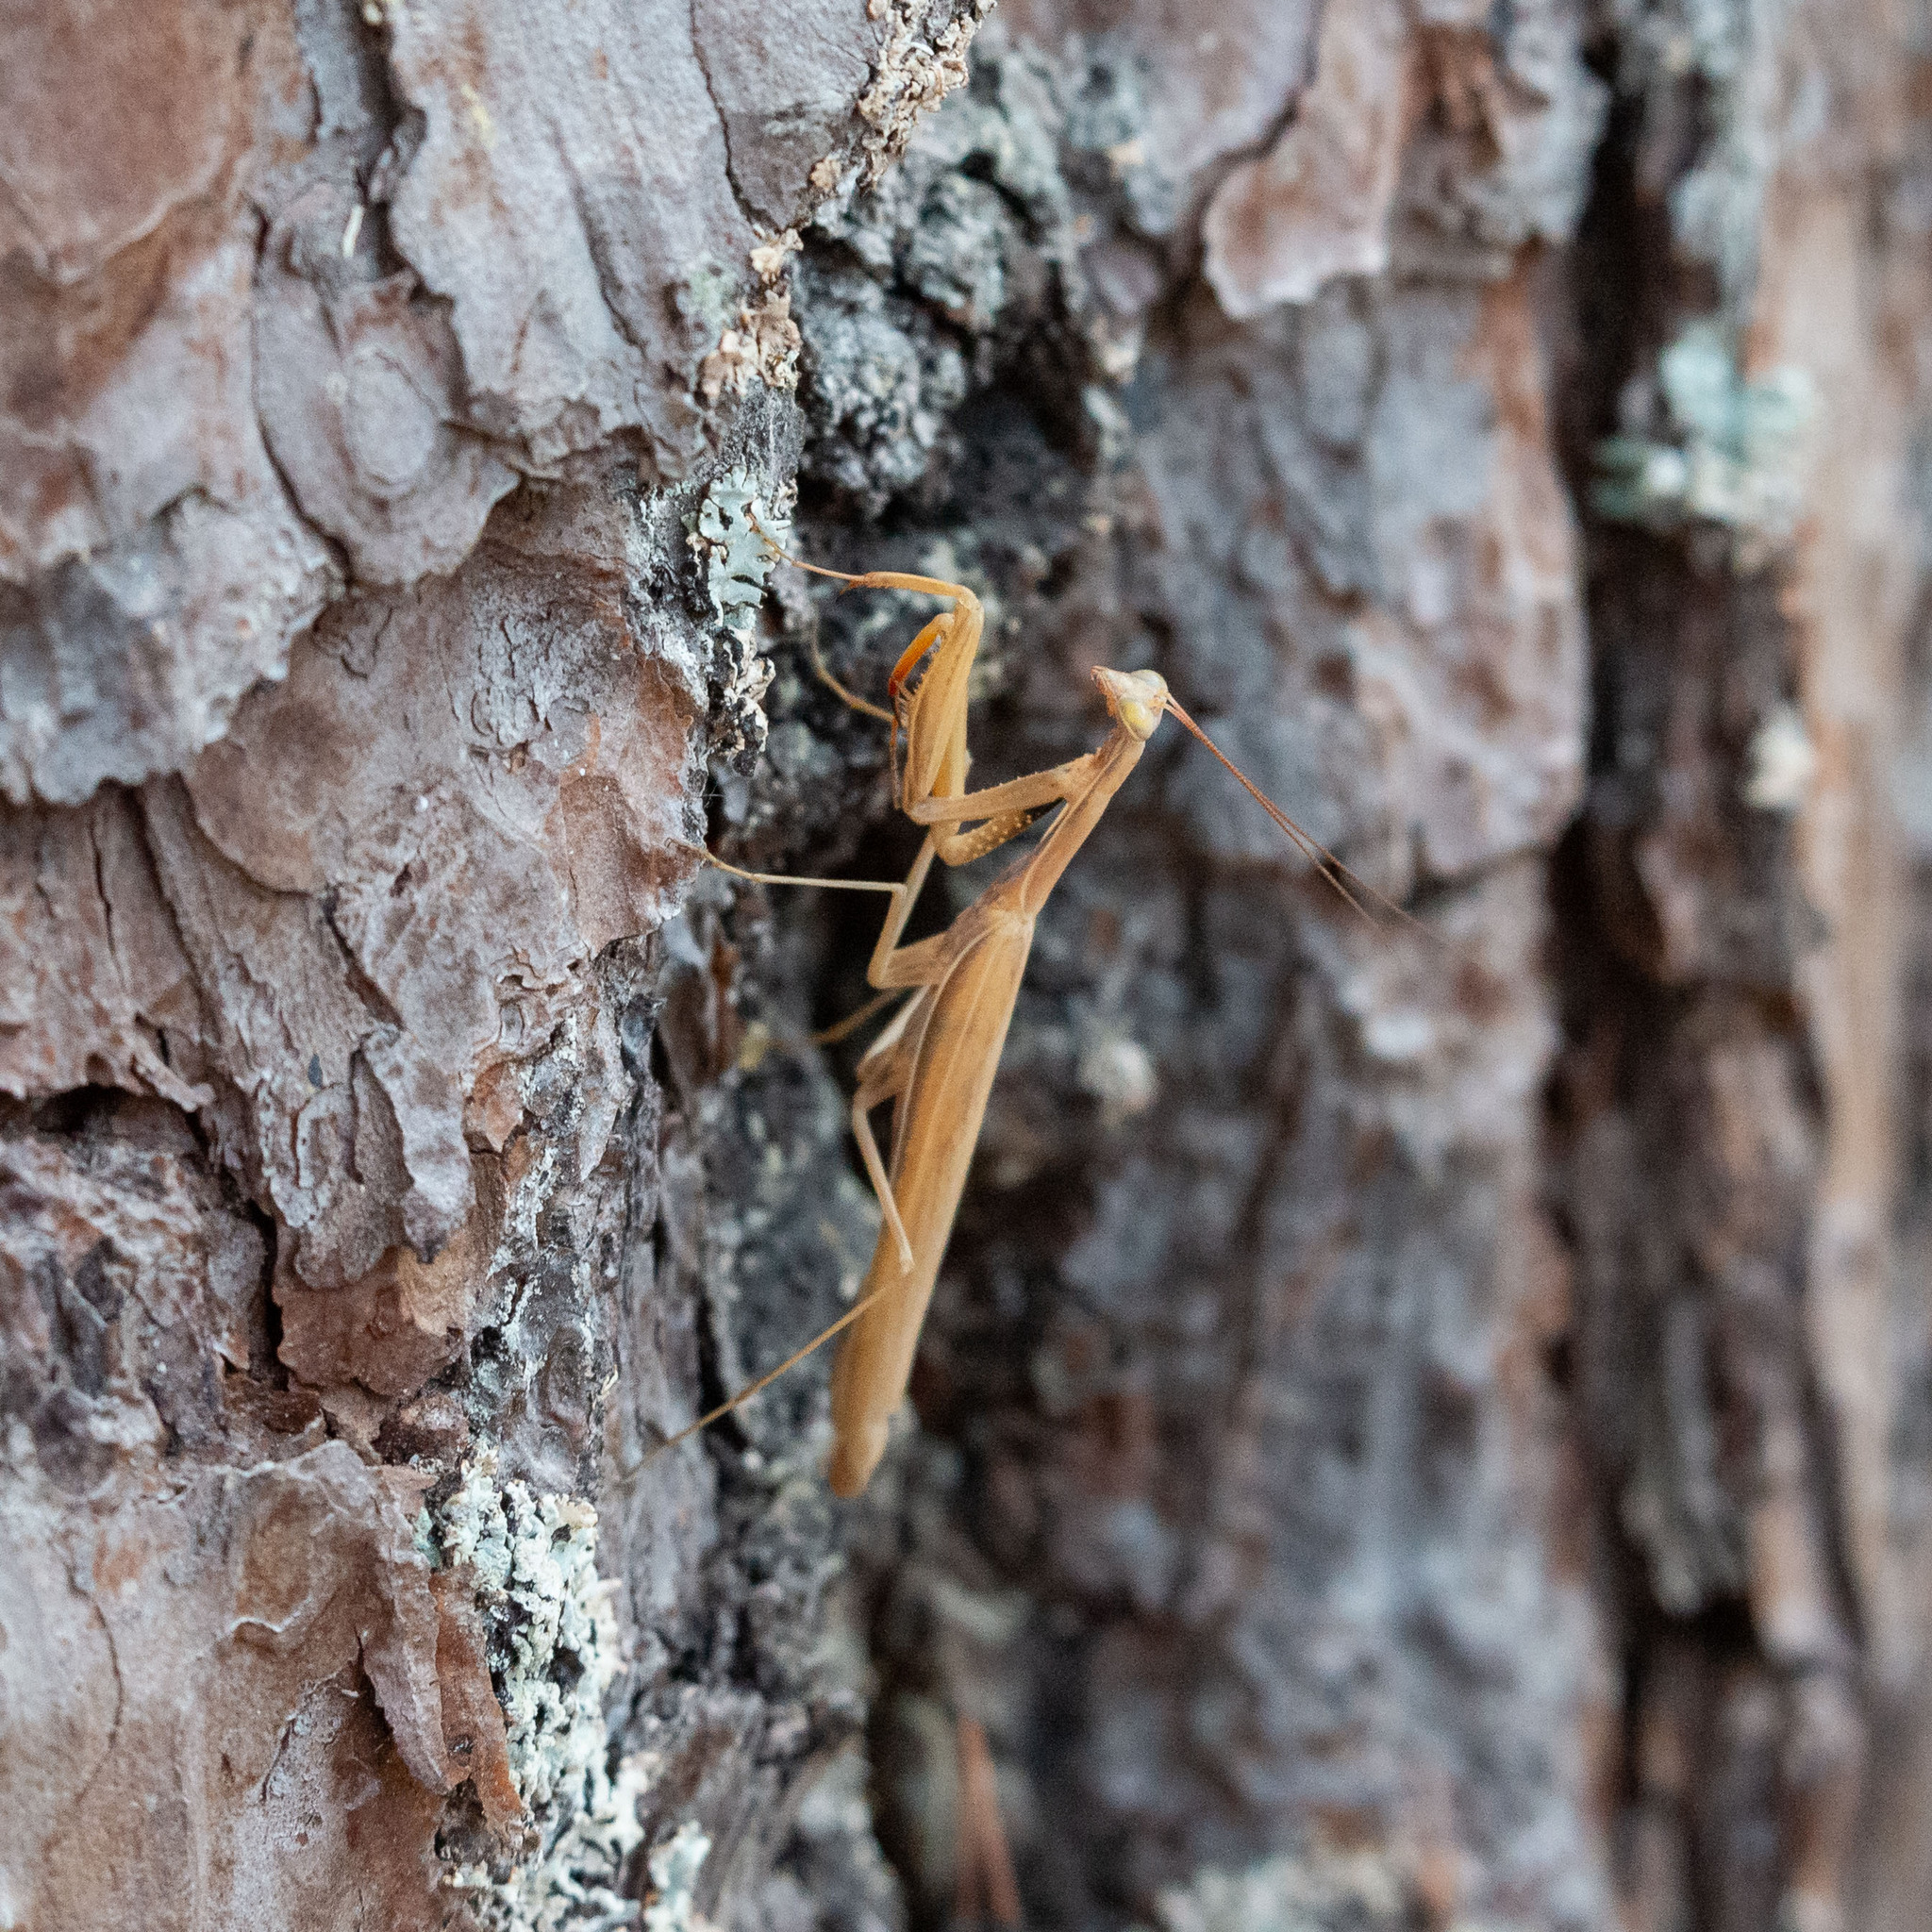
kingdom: Animalia
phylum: Arthropoda
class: Insecta
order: Mantodea
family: Mantidae
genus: Mantis
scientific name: Mantis religiosa
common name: Praying mantis
